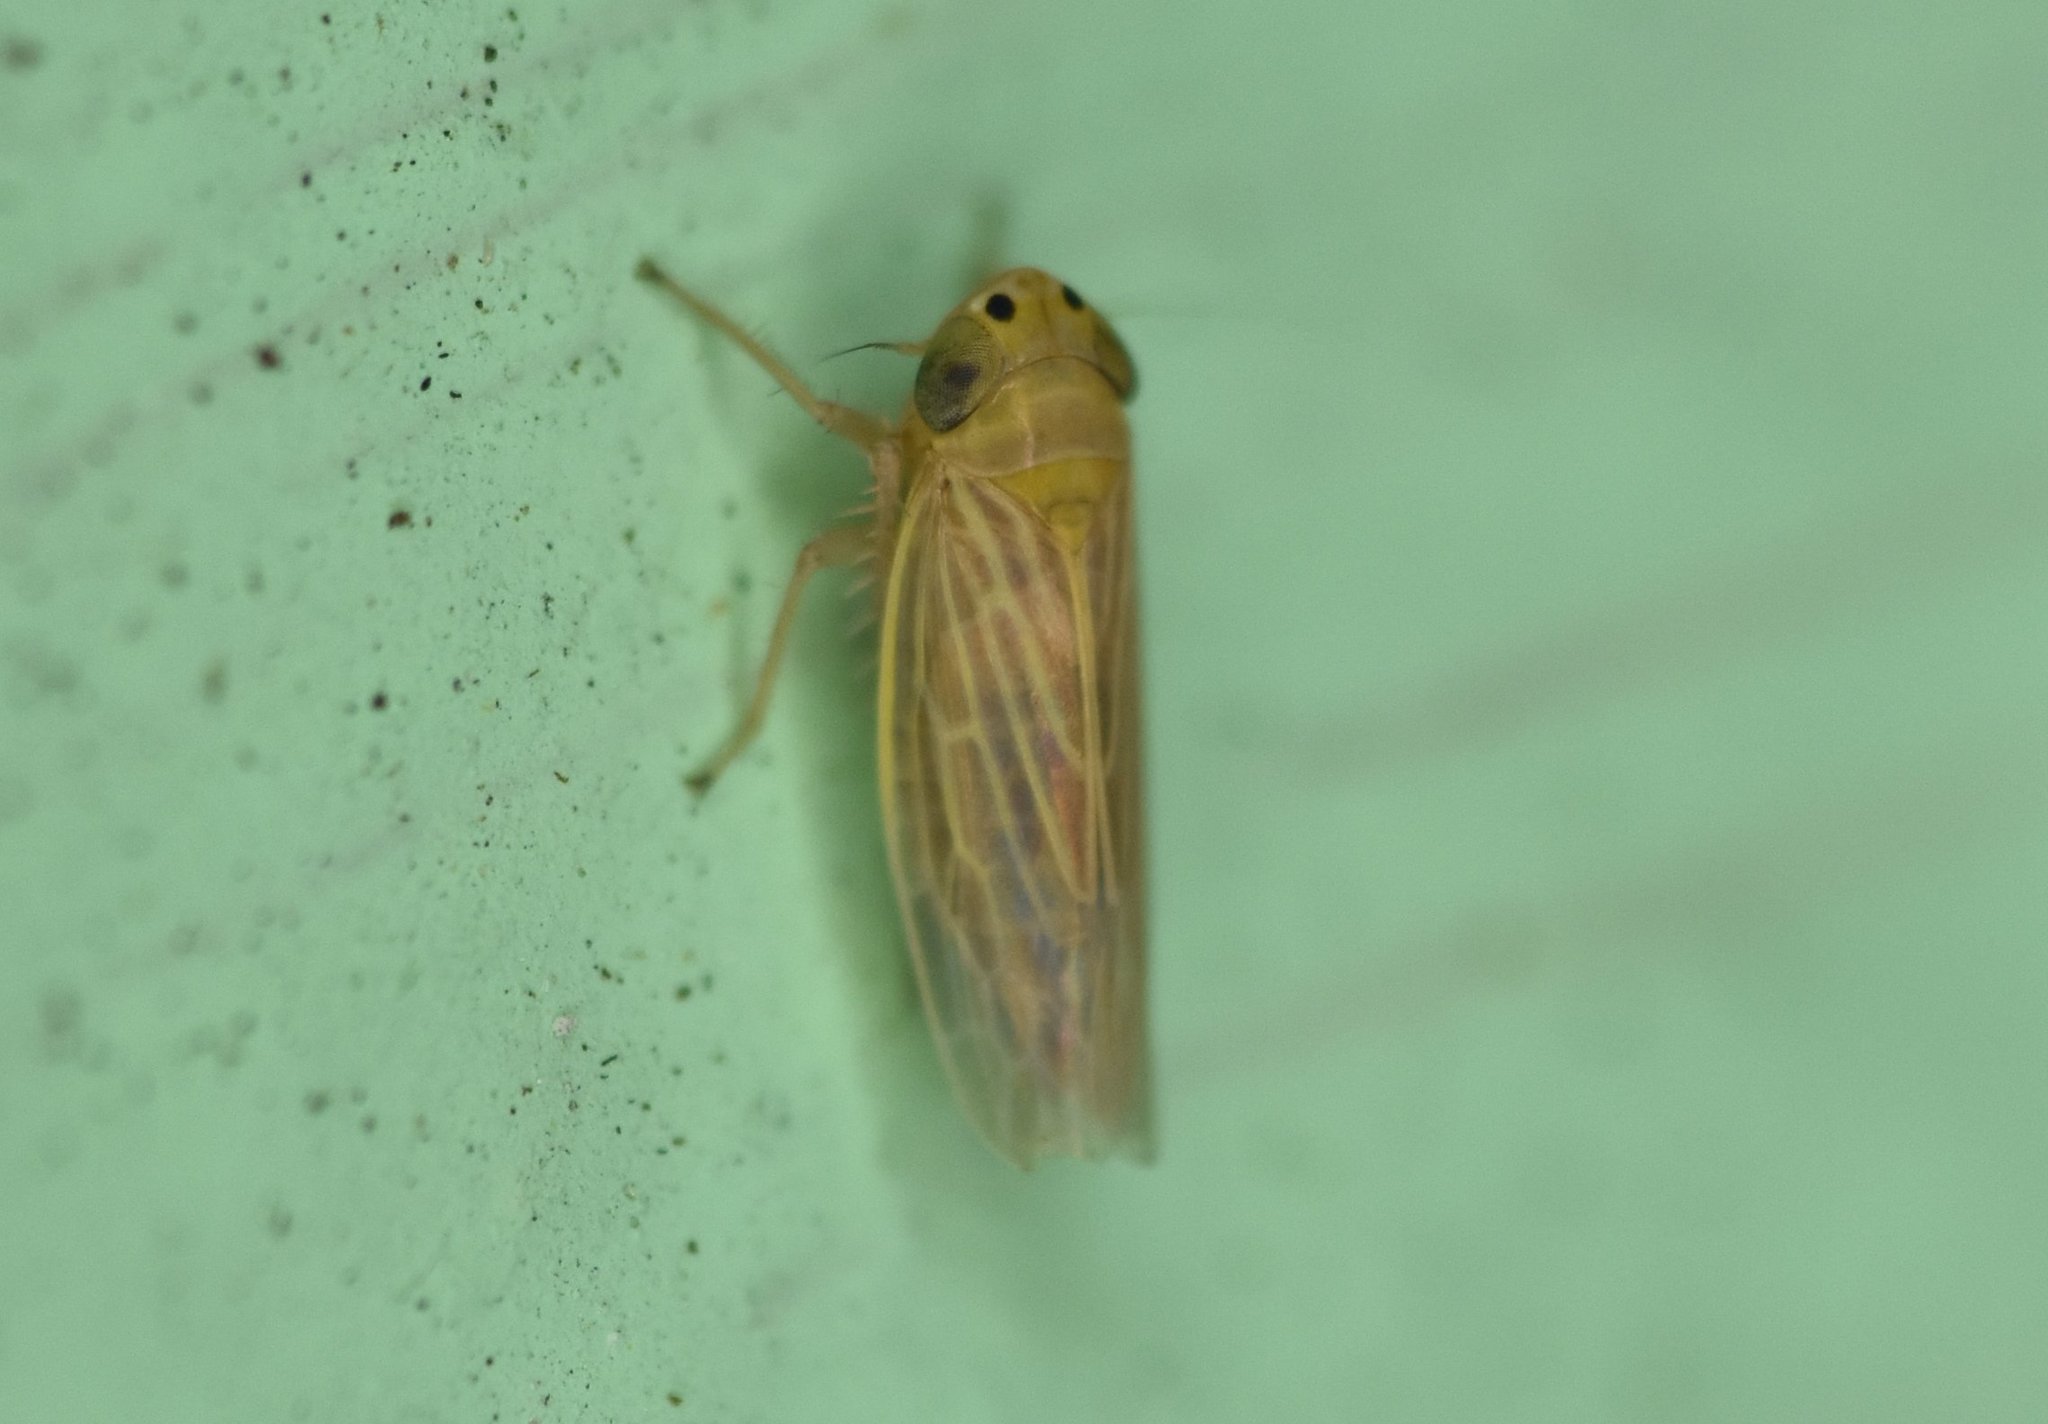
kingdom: Animalia
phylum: Arthropoda
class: Insecta
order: Hemiptera
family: Cicadellidae
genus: Graminella
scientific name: Graminella cognita
